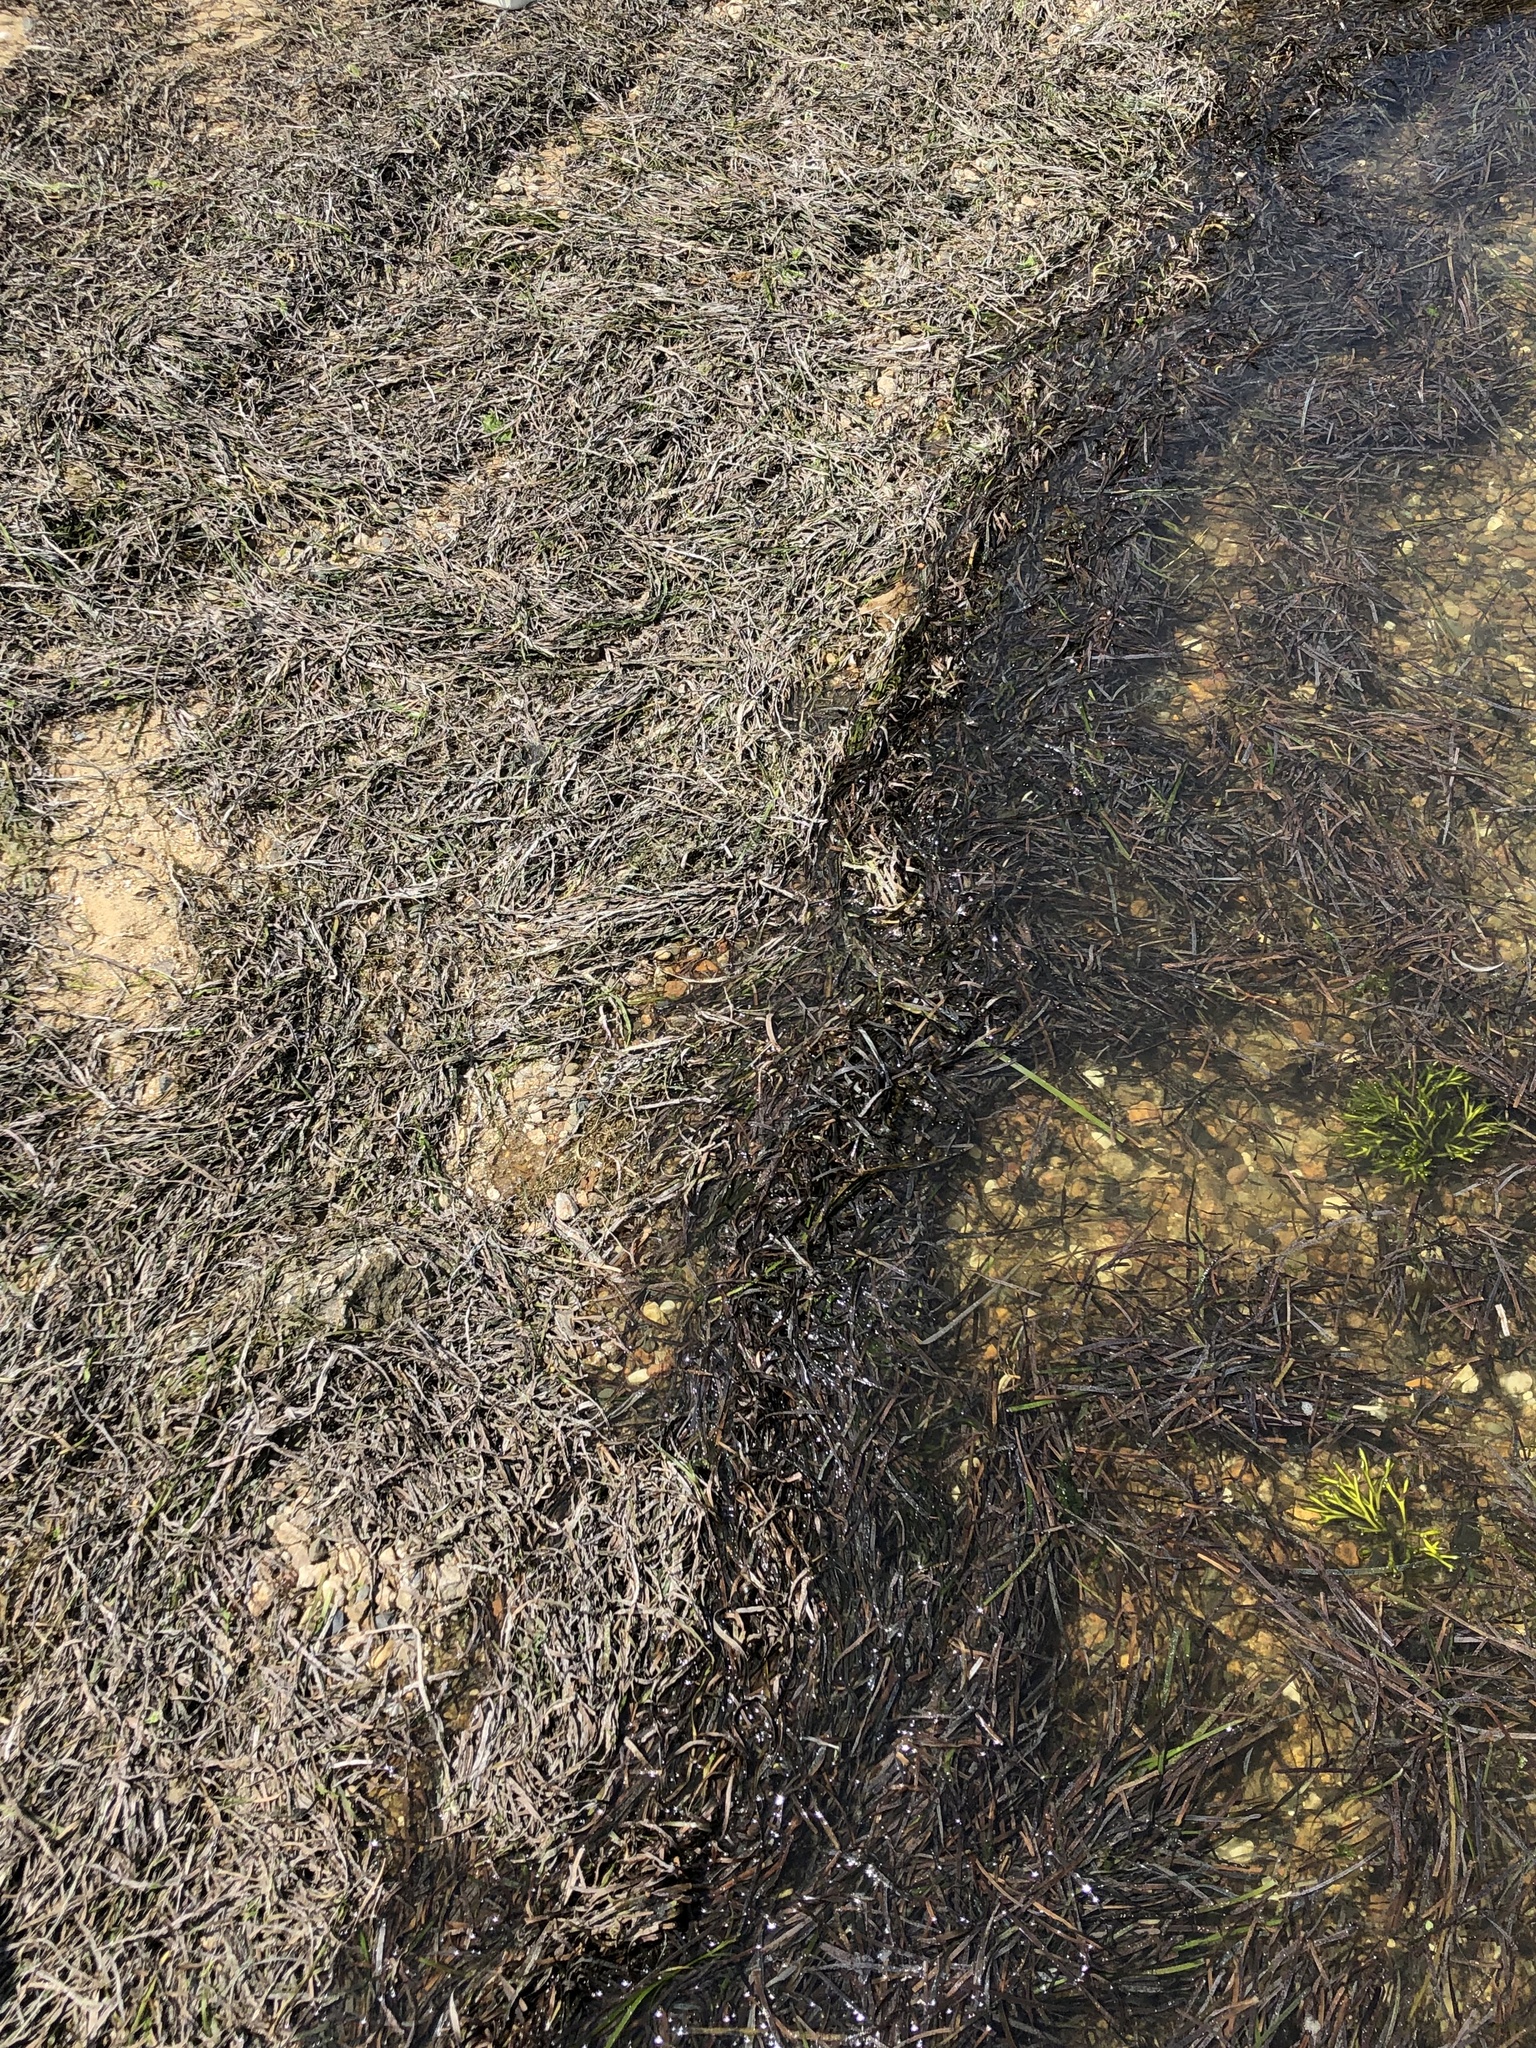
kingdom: Plantae
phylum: Tracheophyta
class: Liliopsida
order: Alismatales
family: Zosteraceae
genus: Zostera
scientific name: Zostera marina
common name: Eelgrass
